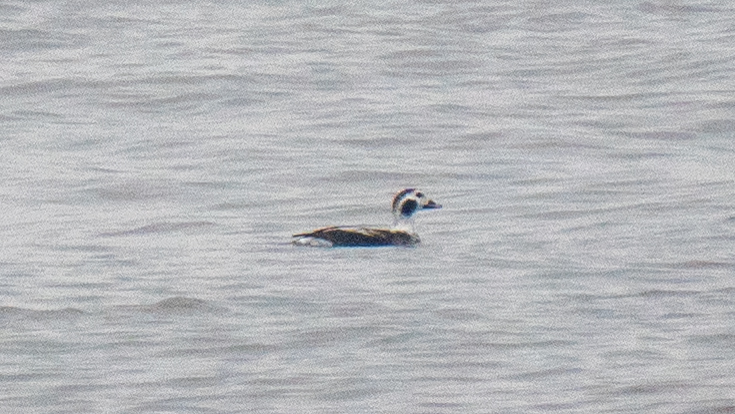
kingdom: Animalia
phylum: Chordata
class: Aves
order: Anseriformes
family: Anatidae
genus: Clangula
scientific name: Clangula hyemalis
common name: Long-tailed duck
